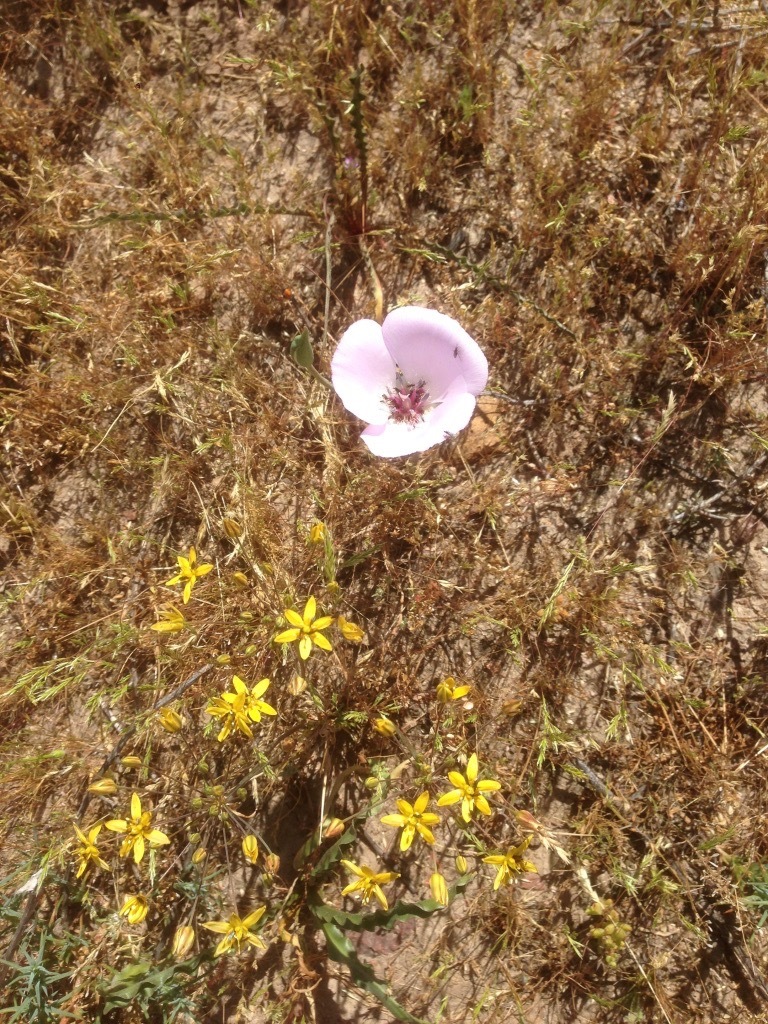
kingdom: Plantae
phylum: Tracheophyta
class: Liliopsida
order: Liliales
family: Liliaceae
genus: Calochortus
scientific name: Calochortus splendens
